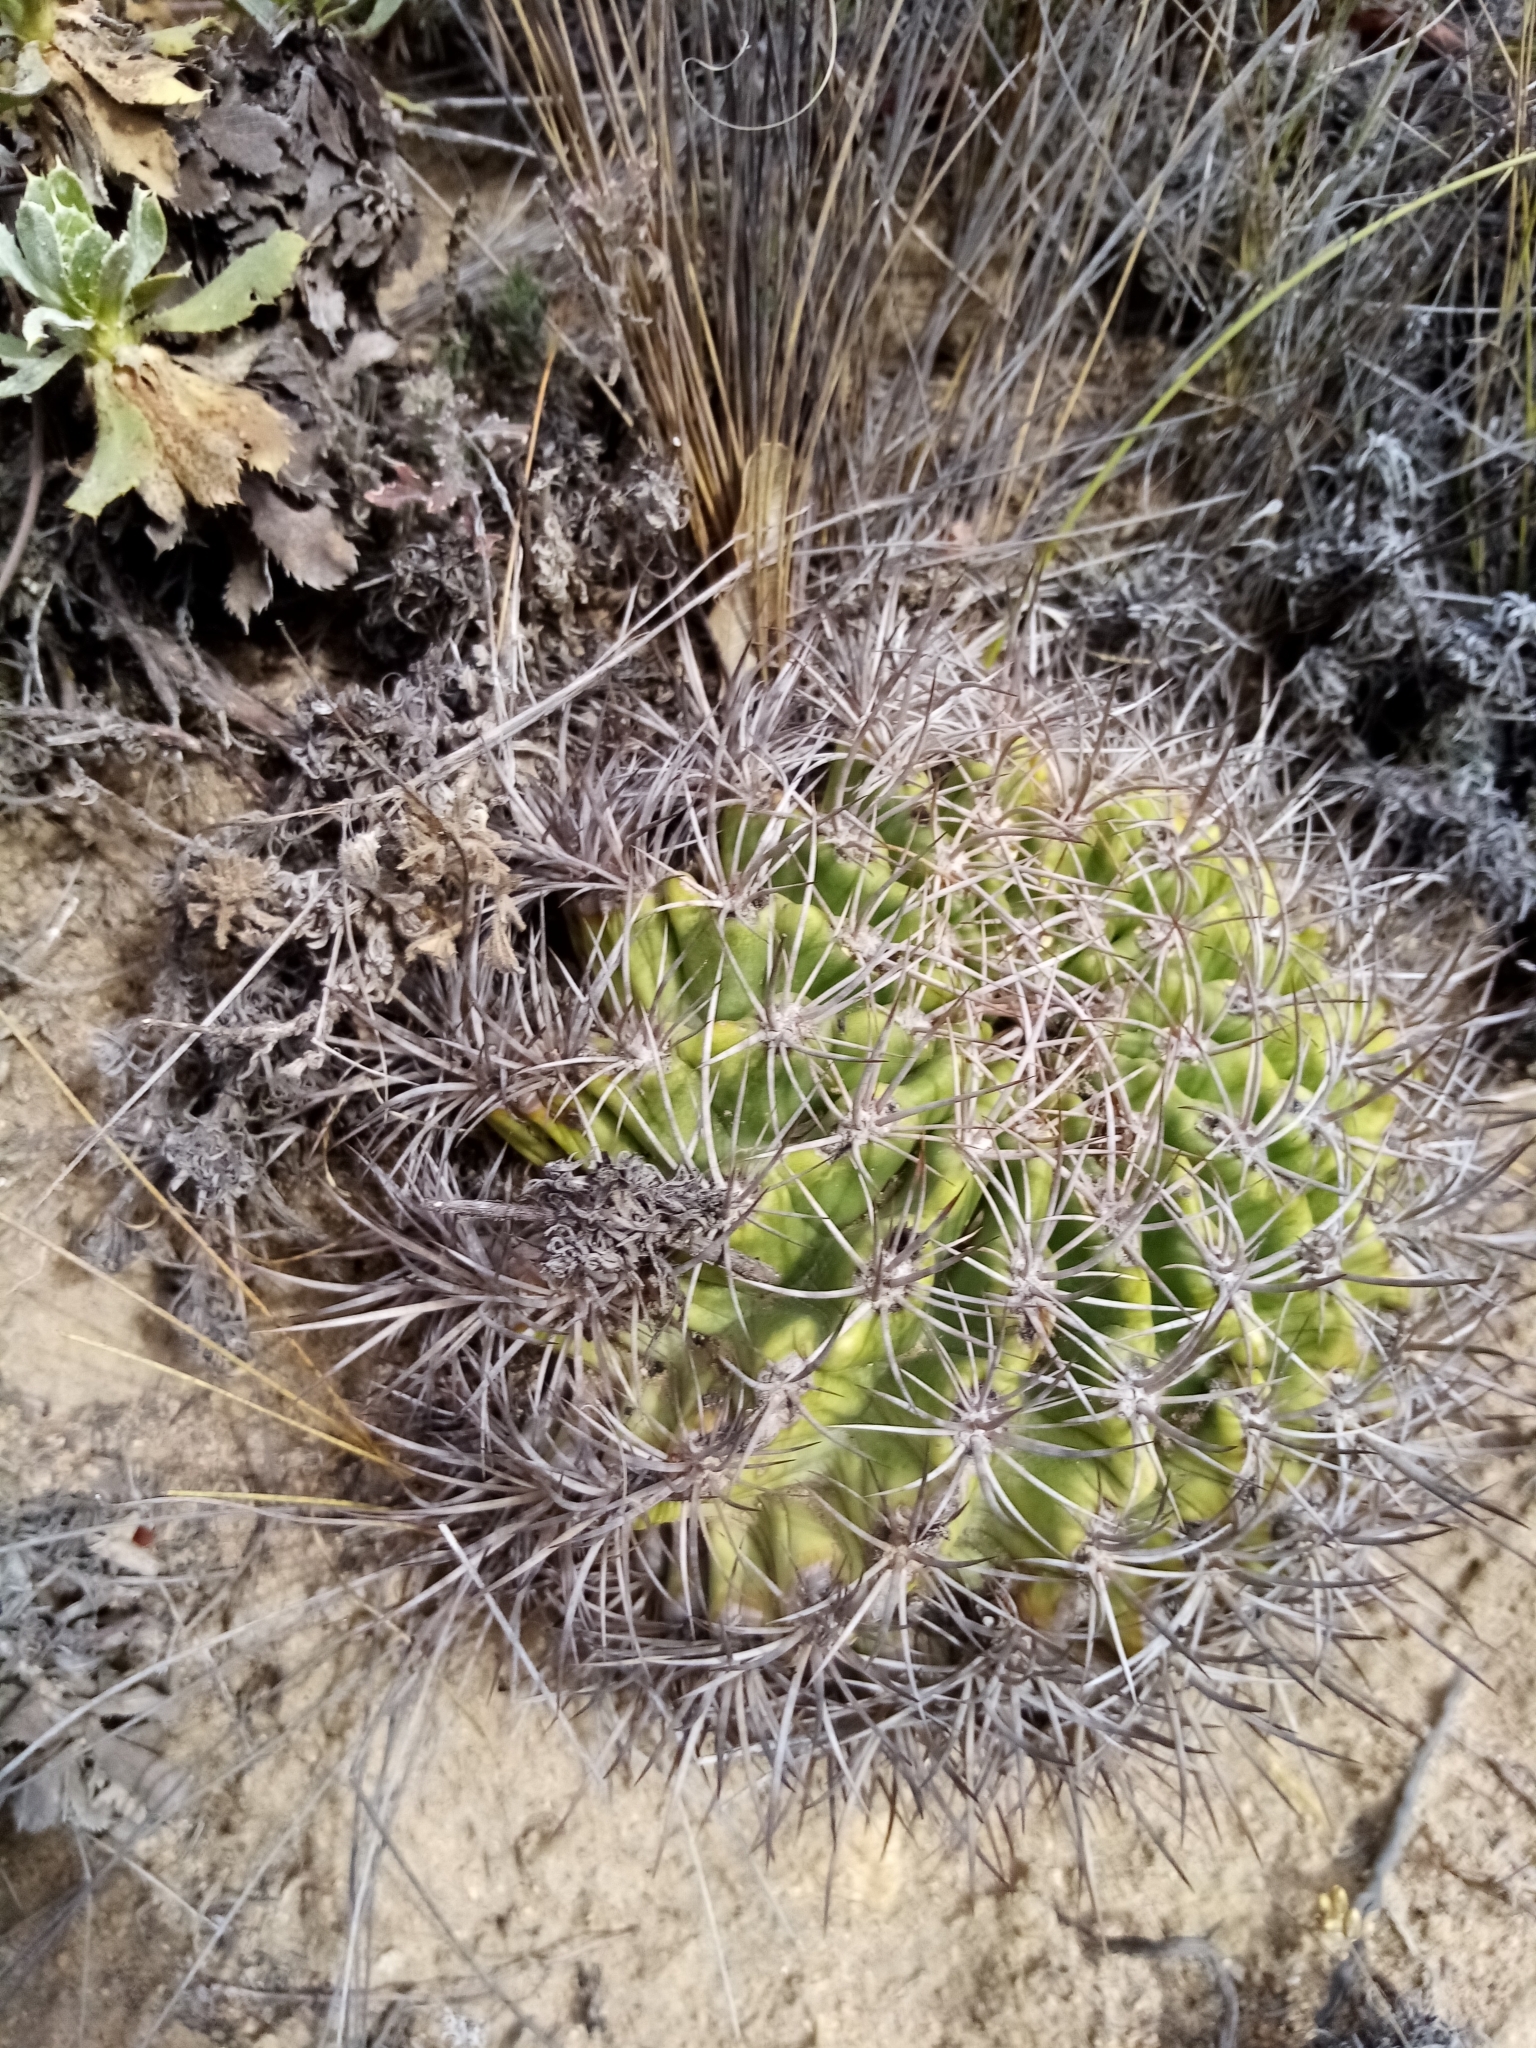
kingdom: Plantae
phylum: Tracheophyta
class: Magnoliopsida
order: Caryophyllales
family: Cactaceae
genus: Eriosyce
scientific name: Eriosyce curvispina
